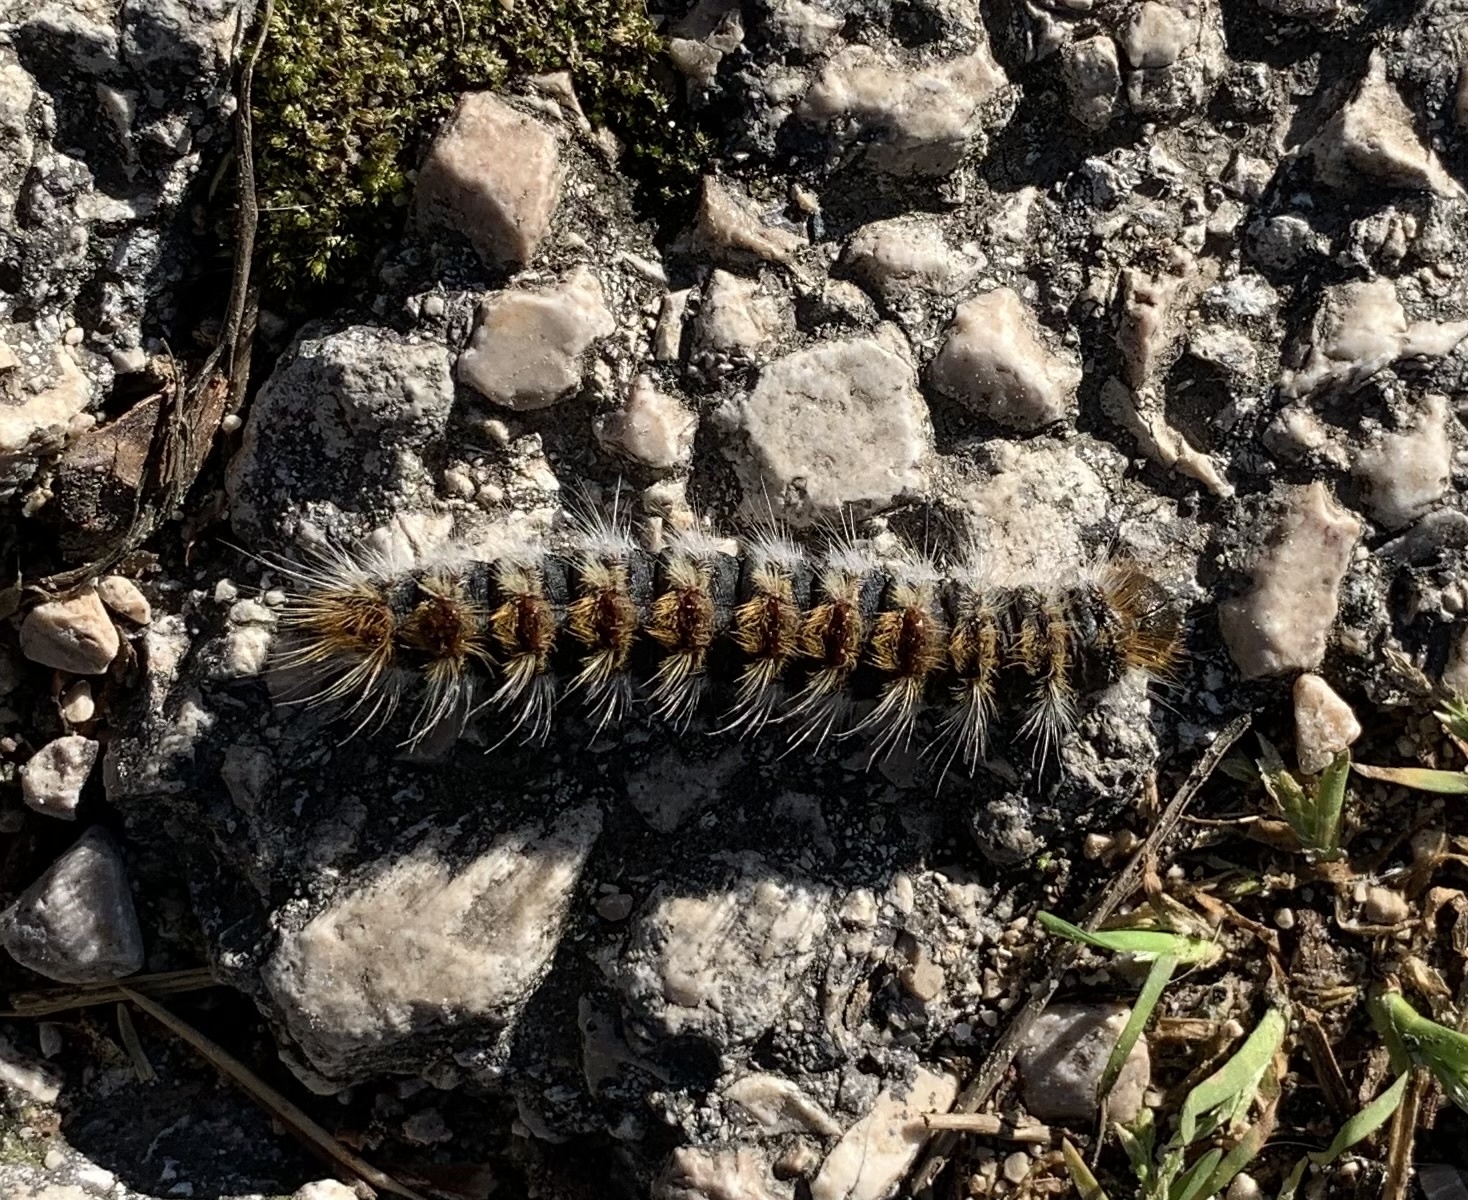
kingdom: Animalia
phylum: Arthropoda
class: Insecta
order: Lepidoptera
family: Notodontidae
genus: Thaumetopoea
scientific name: Thaumetopoea pityocampa
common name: Pine processionary
